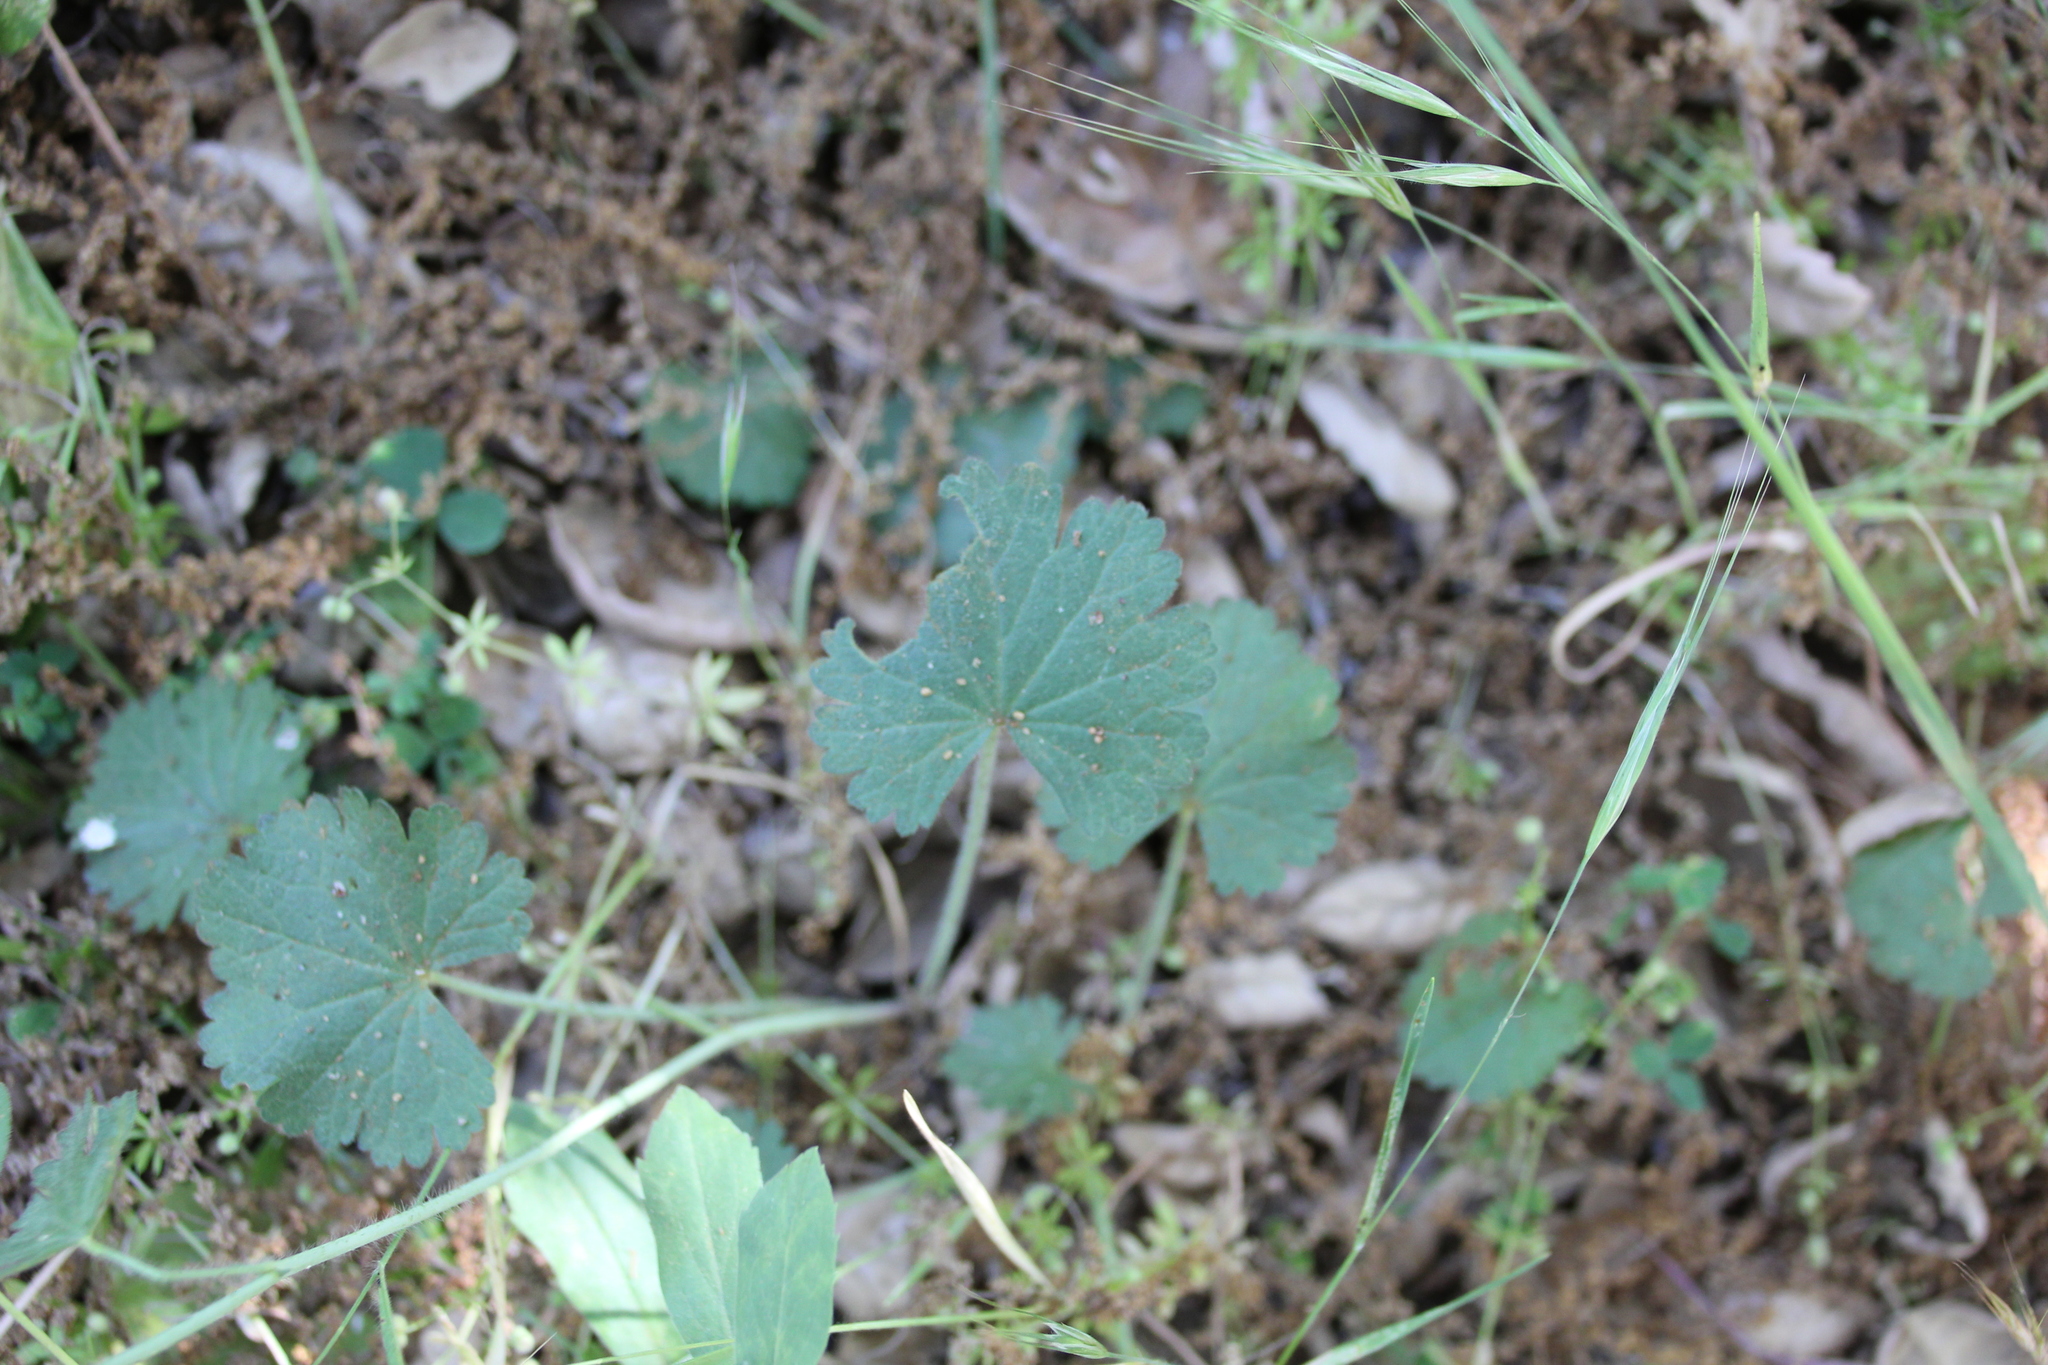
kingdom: Plantae
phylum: Tracheophyta
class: Magnoliopsida
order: Malvales
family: Malvaceae
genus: Sidalcea
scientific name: Sidalcea sparsifolia
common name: Southern checkerbloom
